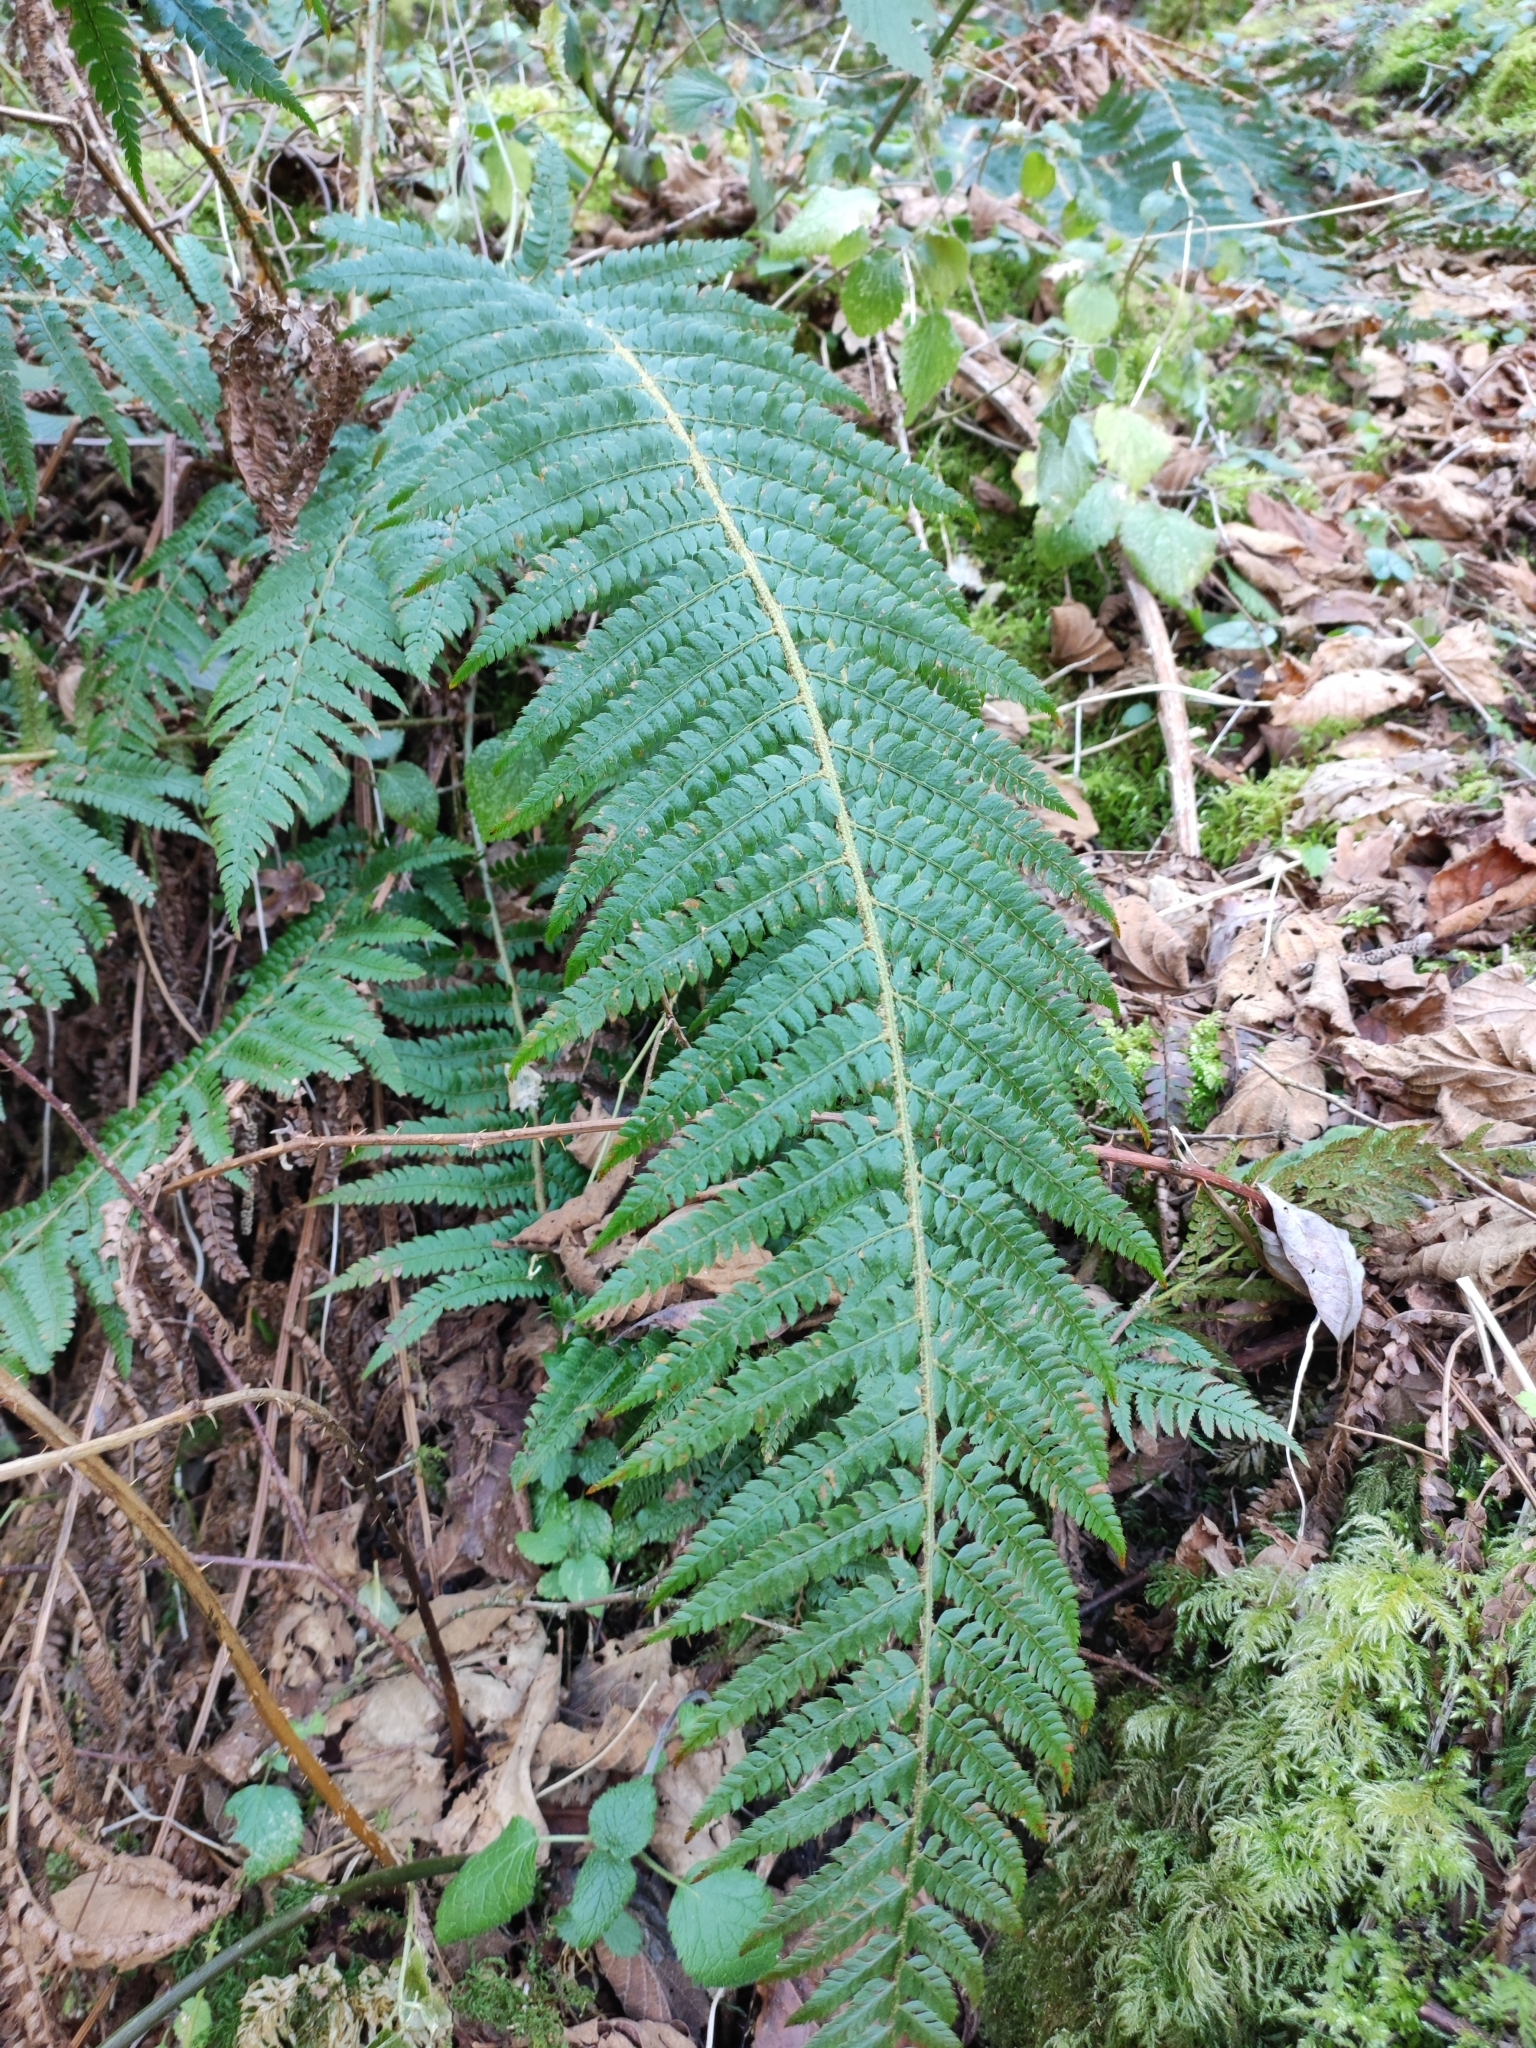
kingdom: Plantae
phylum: Tracheophyta
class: Polypodiopsida
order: Polypodiales
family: Dryopteridaceae
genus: Polystichum
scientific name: Polystichum setiferum
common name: Soft shield-fern
